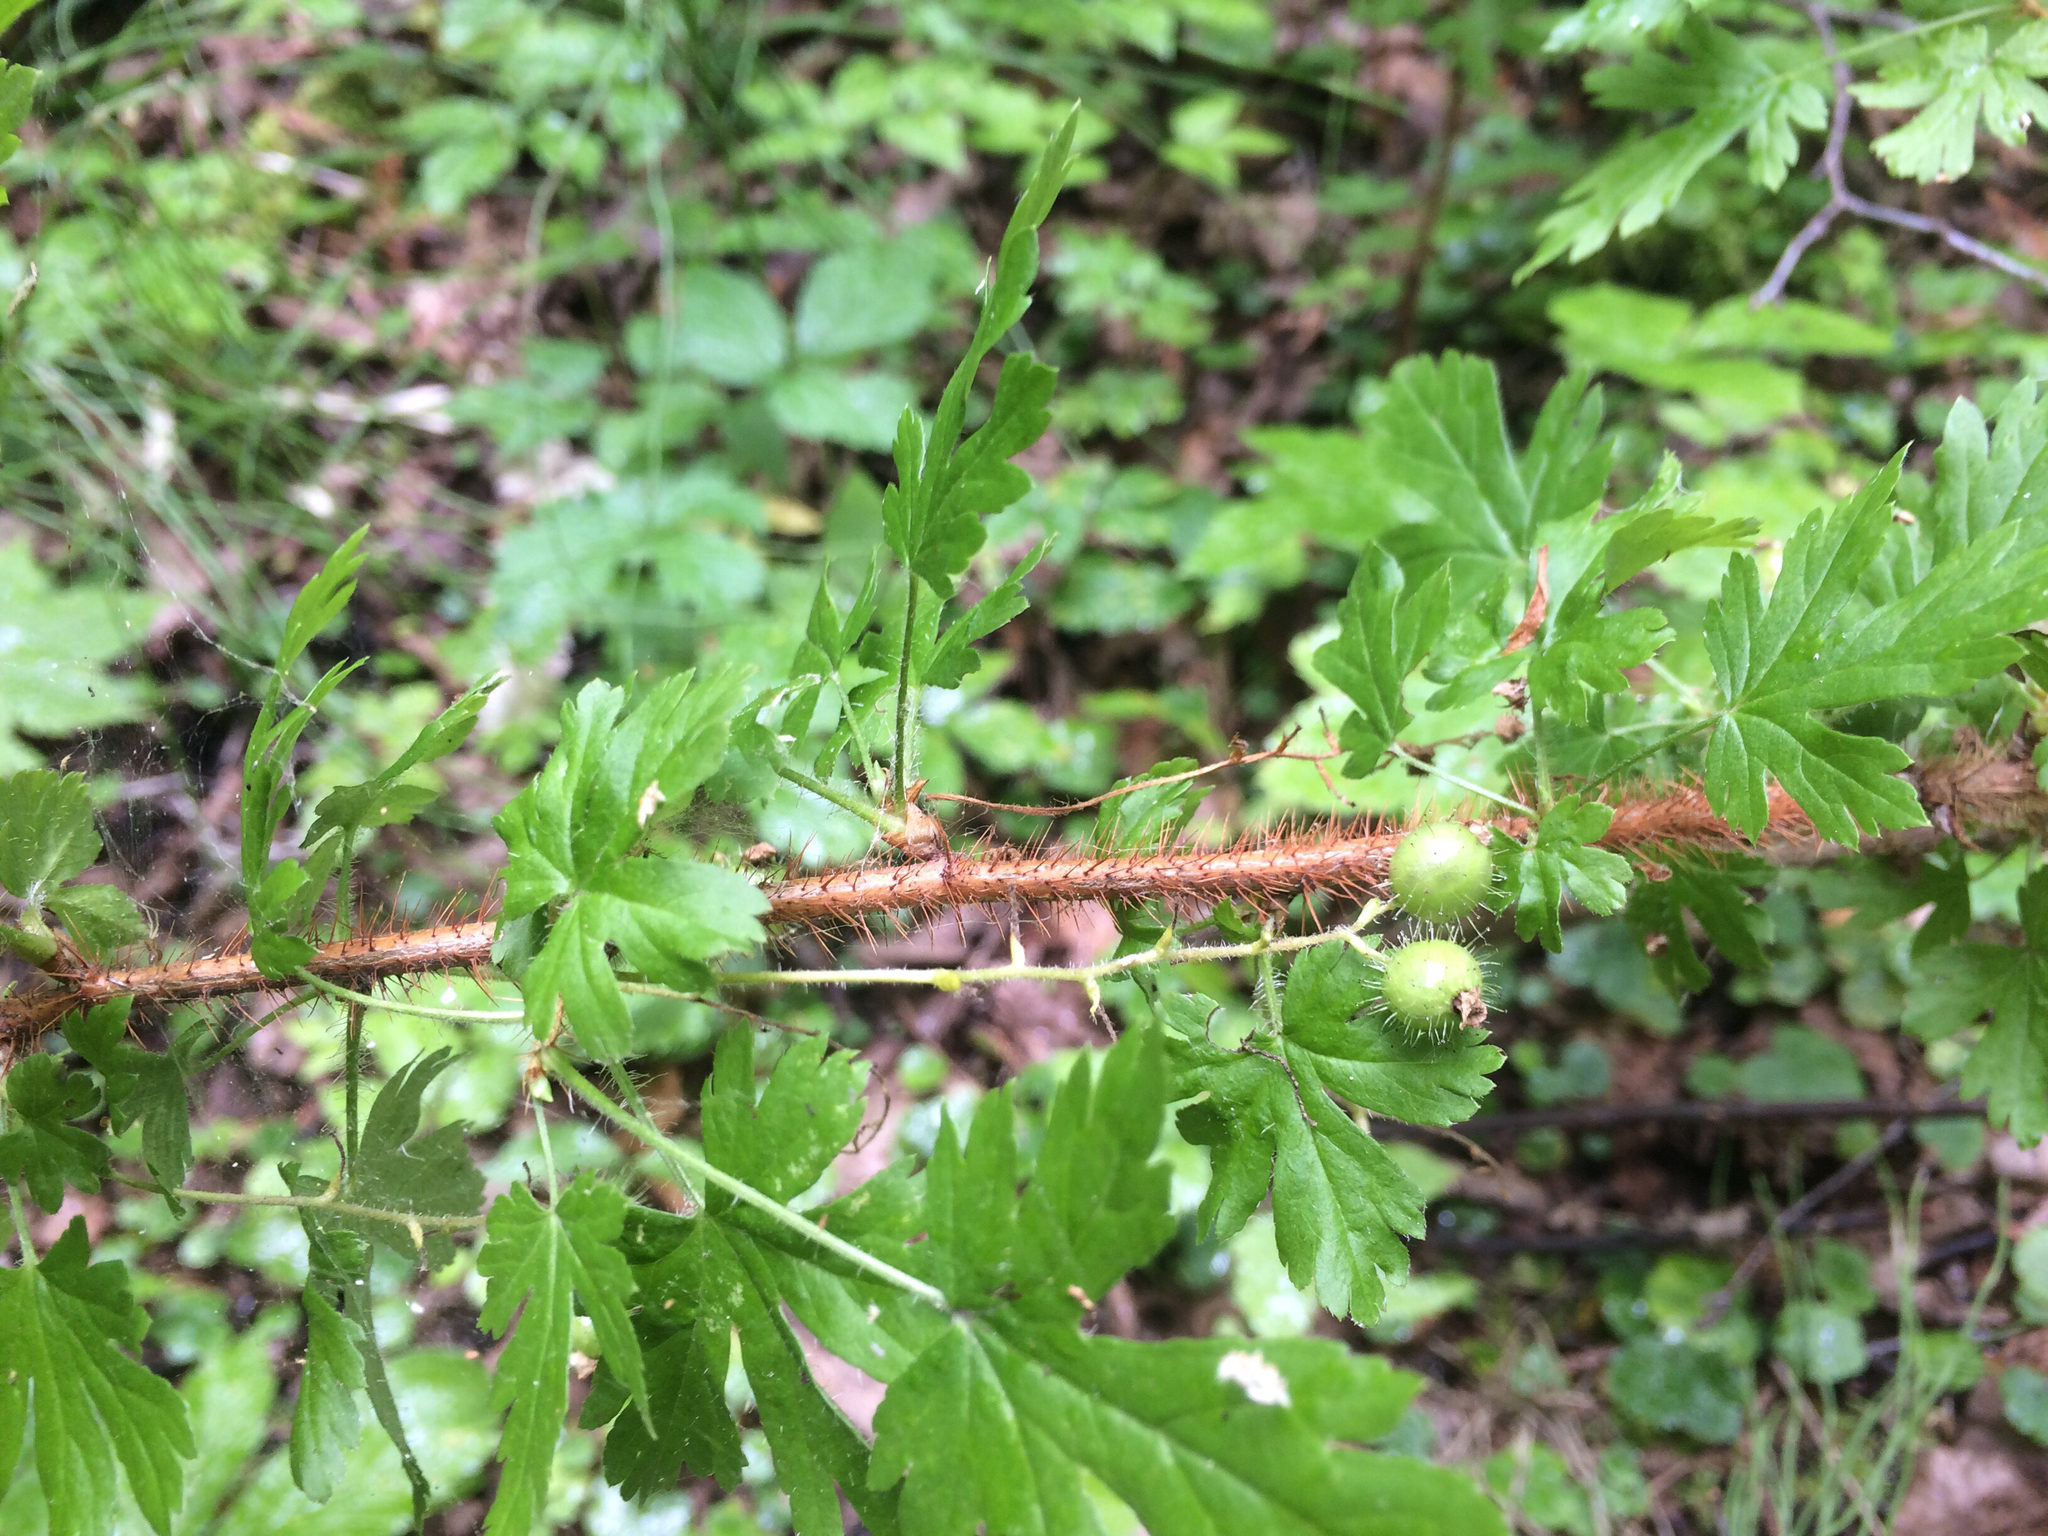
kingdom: Plantae
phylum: Tracheophyta
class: Magnoliopsida
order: Saxifragales
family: Grossulariaceae
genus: Ribes
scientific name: Ribes lacustre
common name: Black gooseberry
